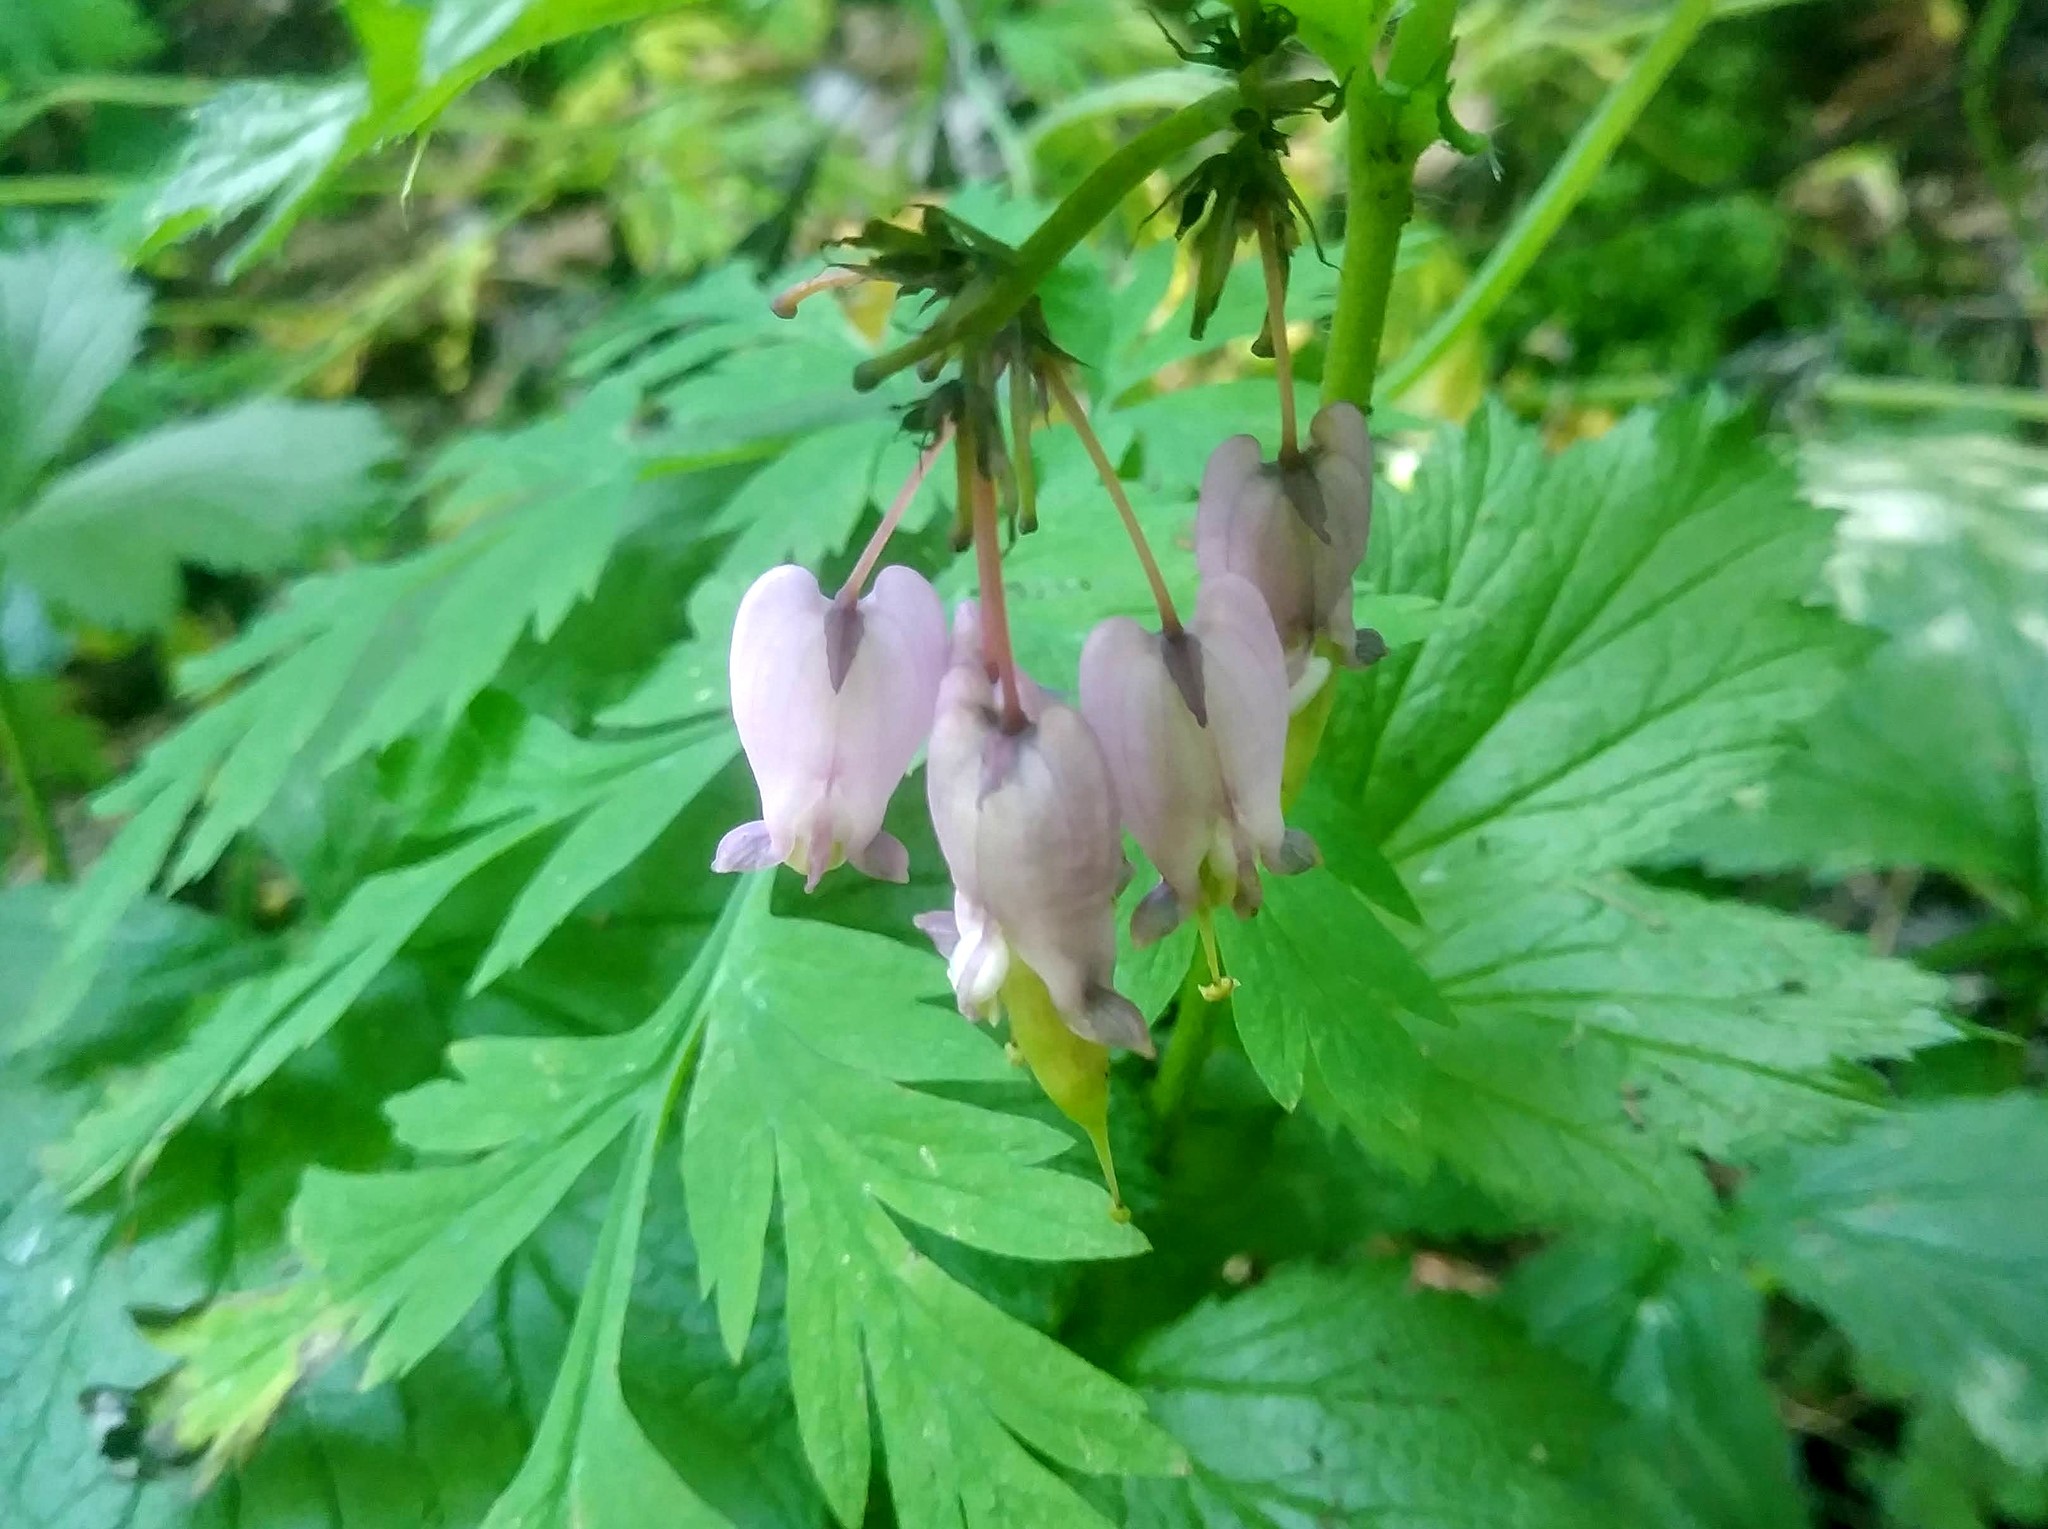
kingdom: Plantae
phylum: Tracheophyta
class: Magnoliopsida
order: Ranunculales
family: Papaveraceae
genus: Dicentra
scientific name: Dicentra formosa
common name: Bleeding-heart
